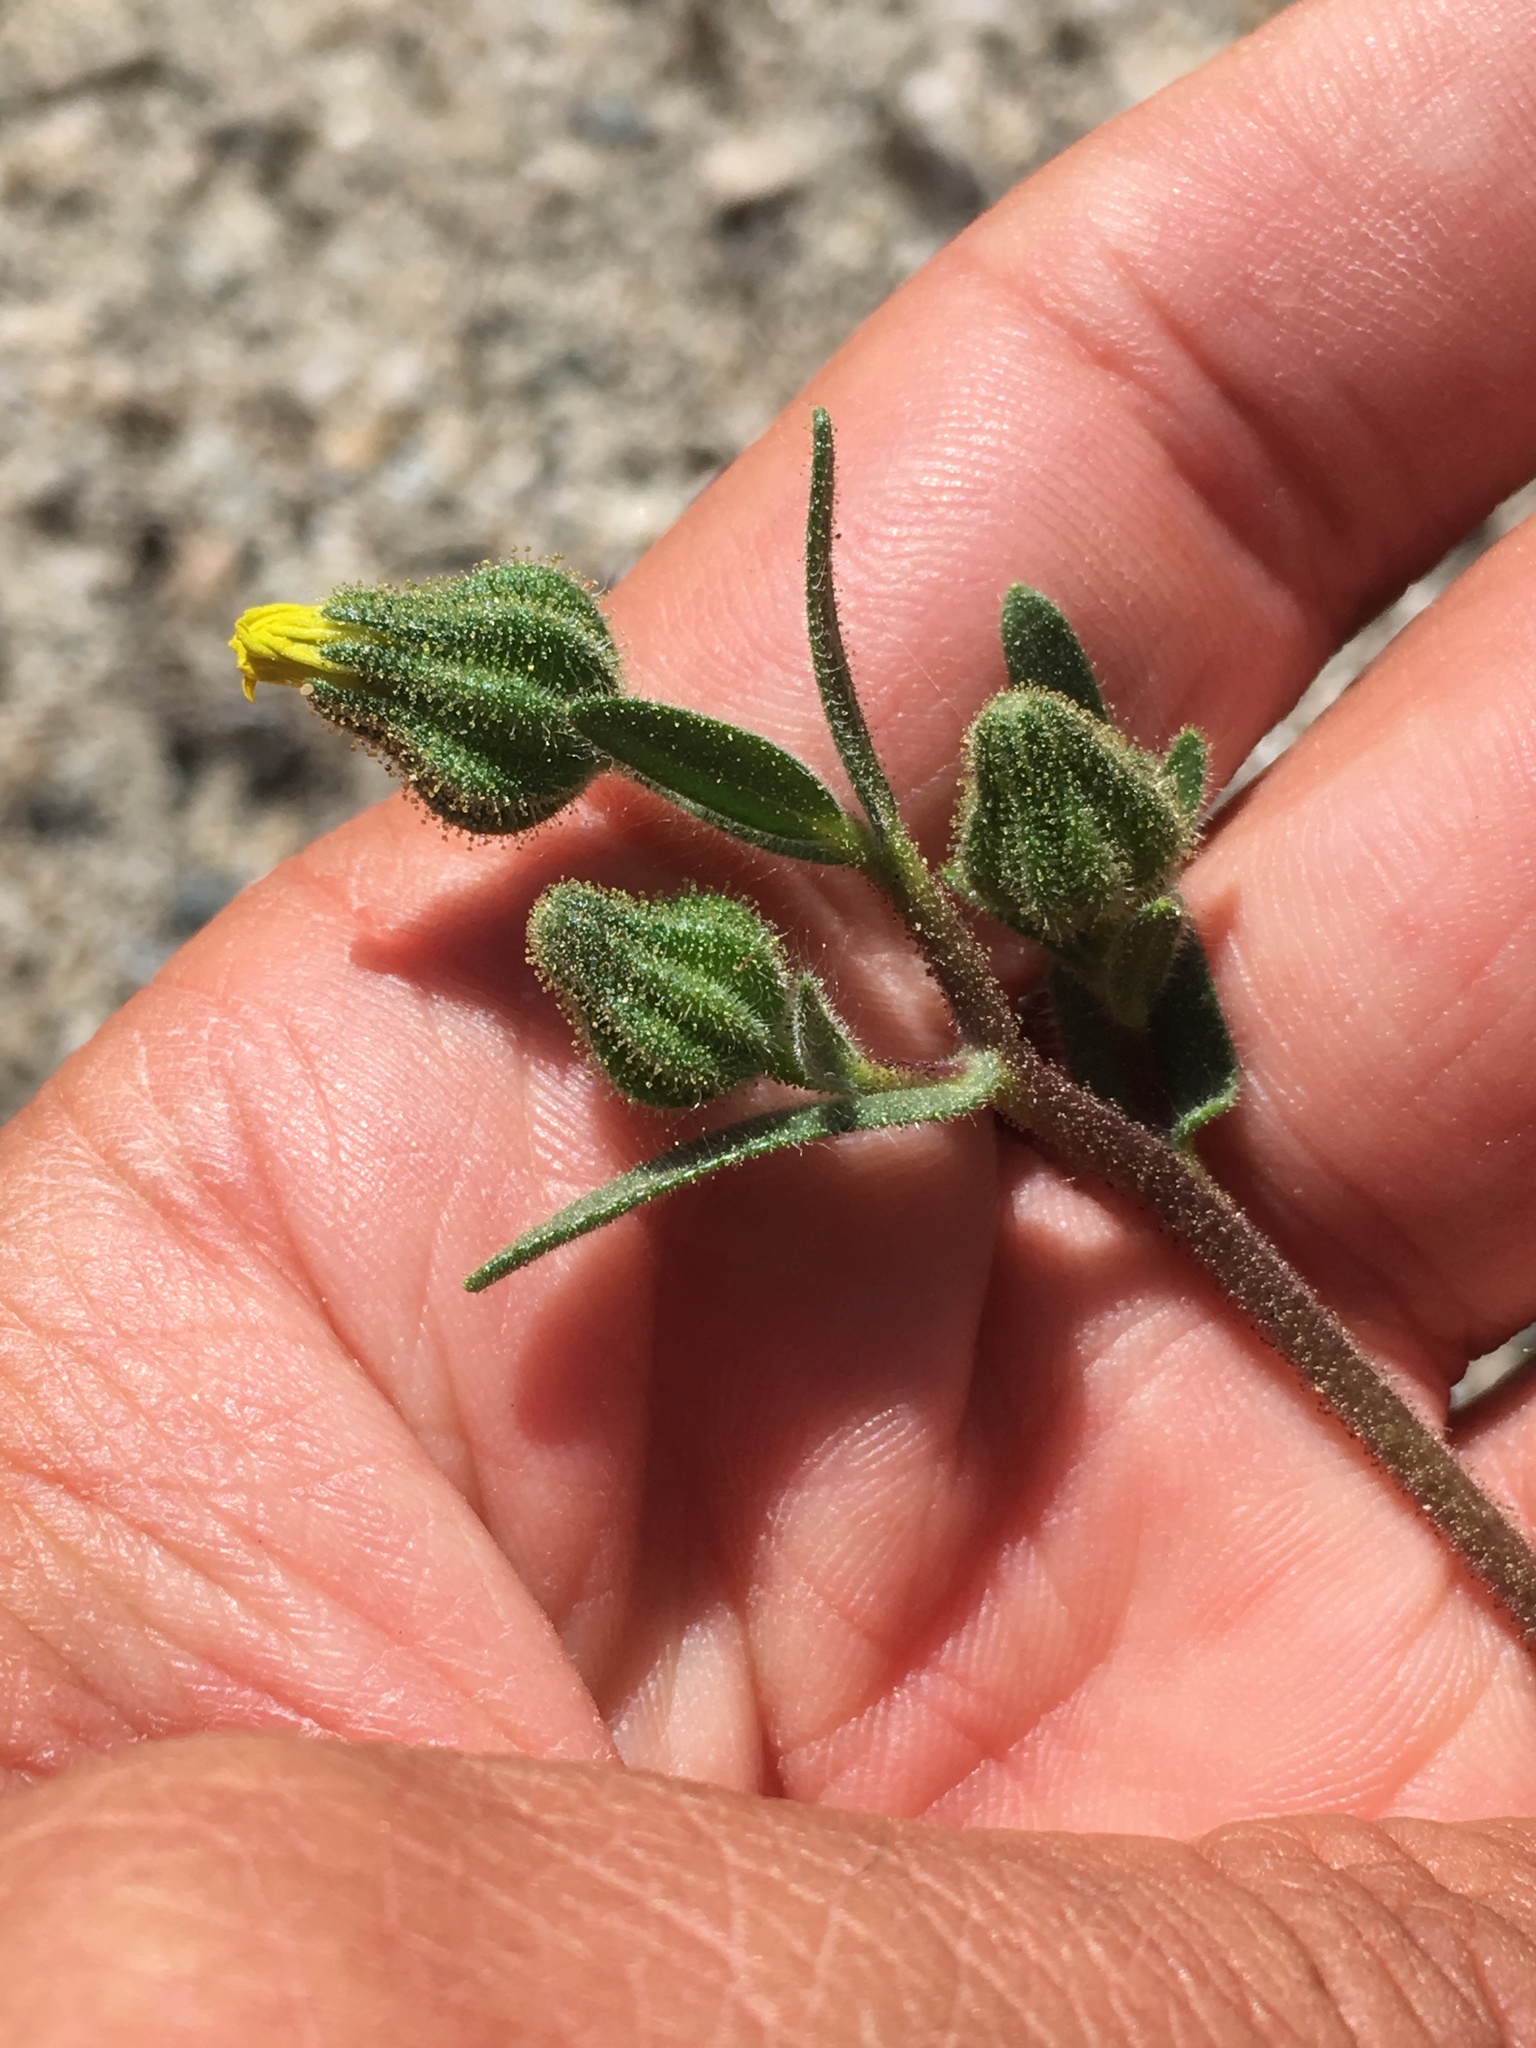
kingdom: Plantae
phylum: Tracheophyta
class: Magnoliopsida
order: Asterales
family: Asteraceae
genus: Madia
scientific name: Madia gracilis
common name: Grassy tarweed
